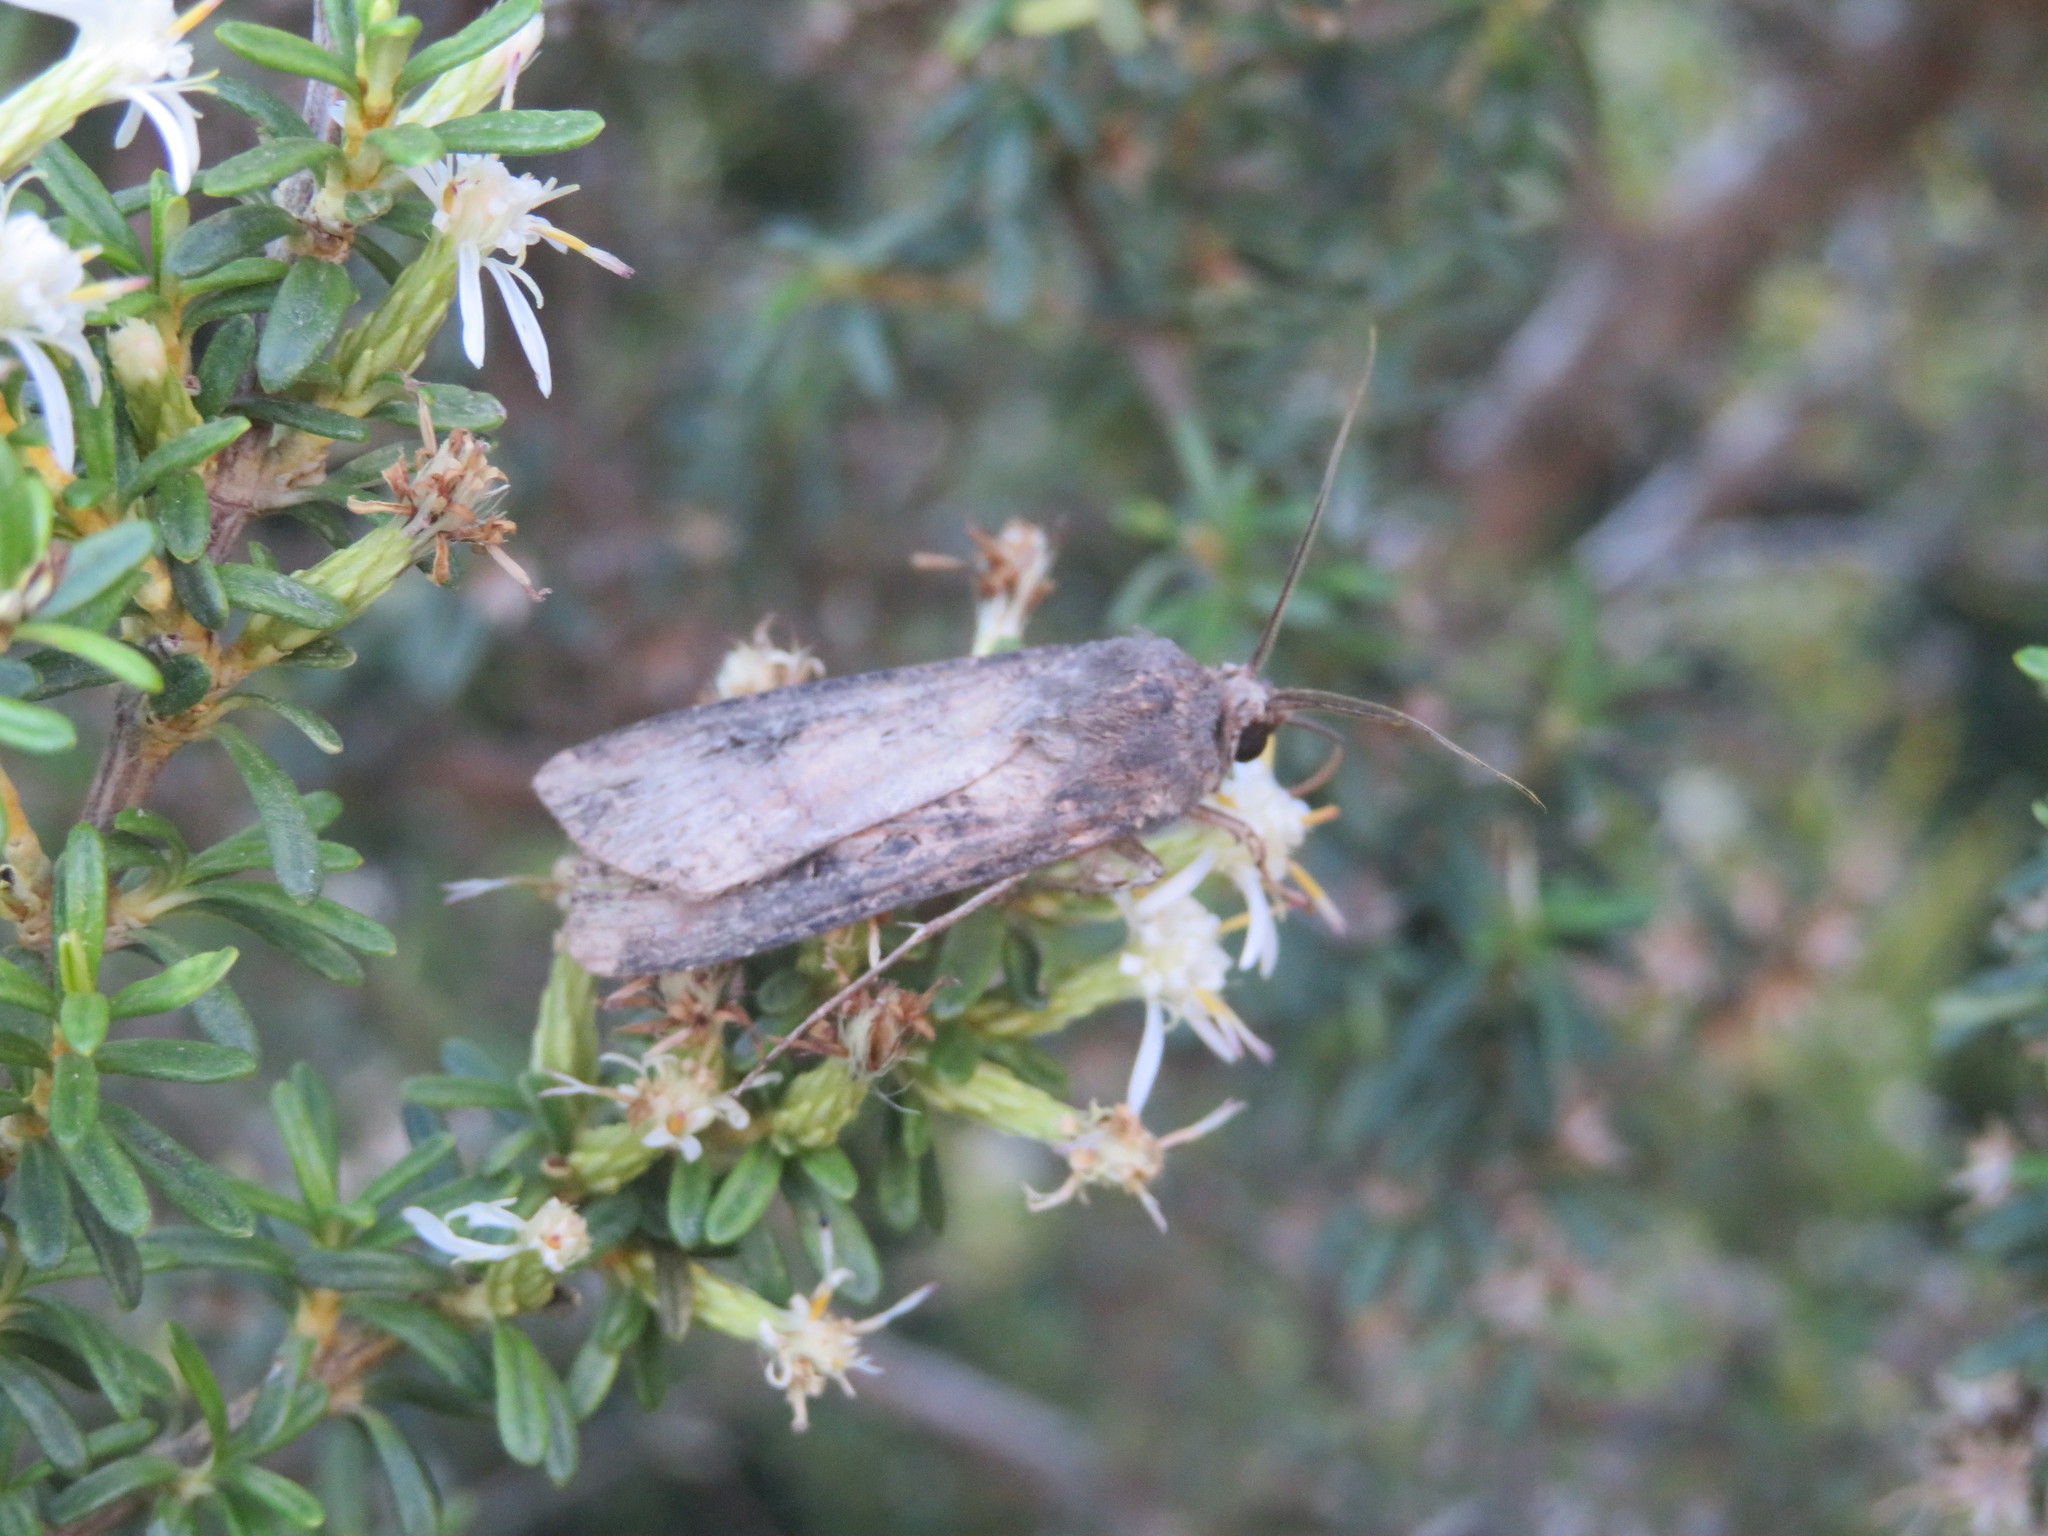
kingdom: Animalia
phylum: Arthropoda
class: Insecta
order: Lepidoptera
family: Noctuidae
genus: Agrotis
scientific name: Agrotis ipsilon
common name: Dark sword-grass
